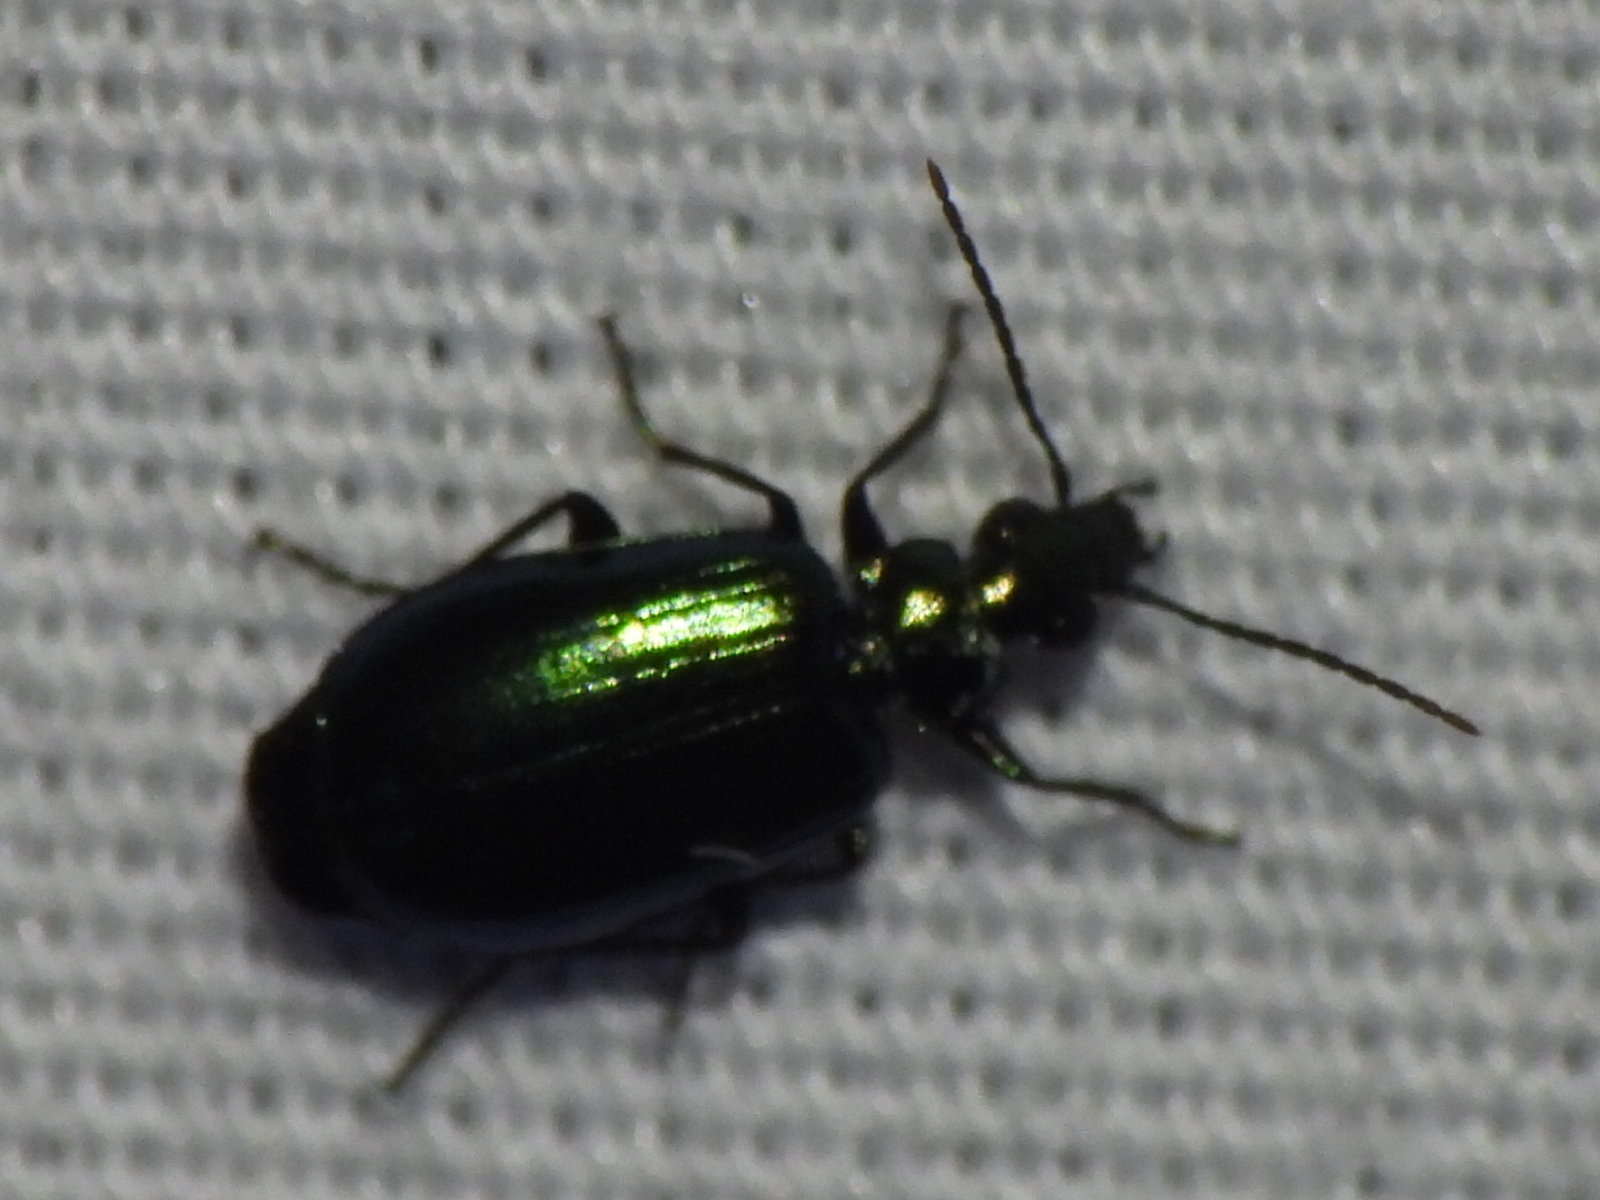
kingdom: Animalia
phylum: Arthropoda
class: Insecta
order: Coleoptera
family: Carabidae
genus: Lebia
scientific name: Lebia viridis
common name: Flower lebia beetle
